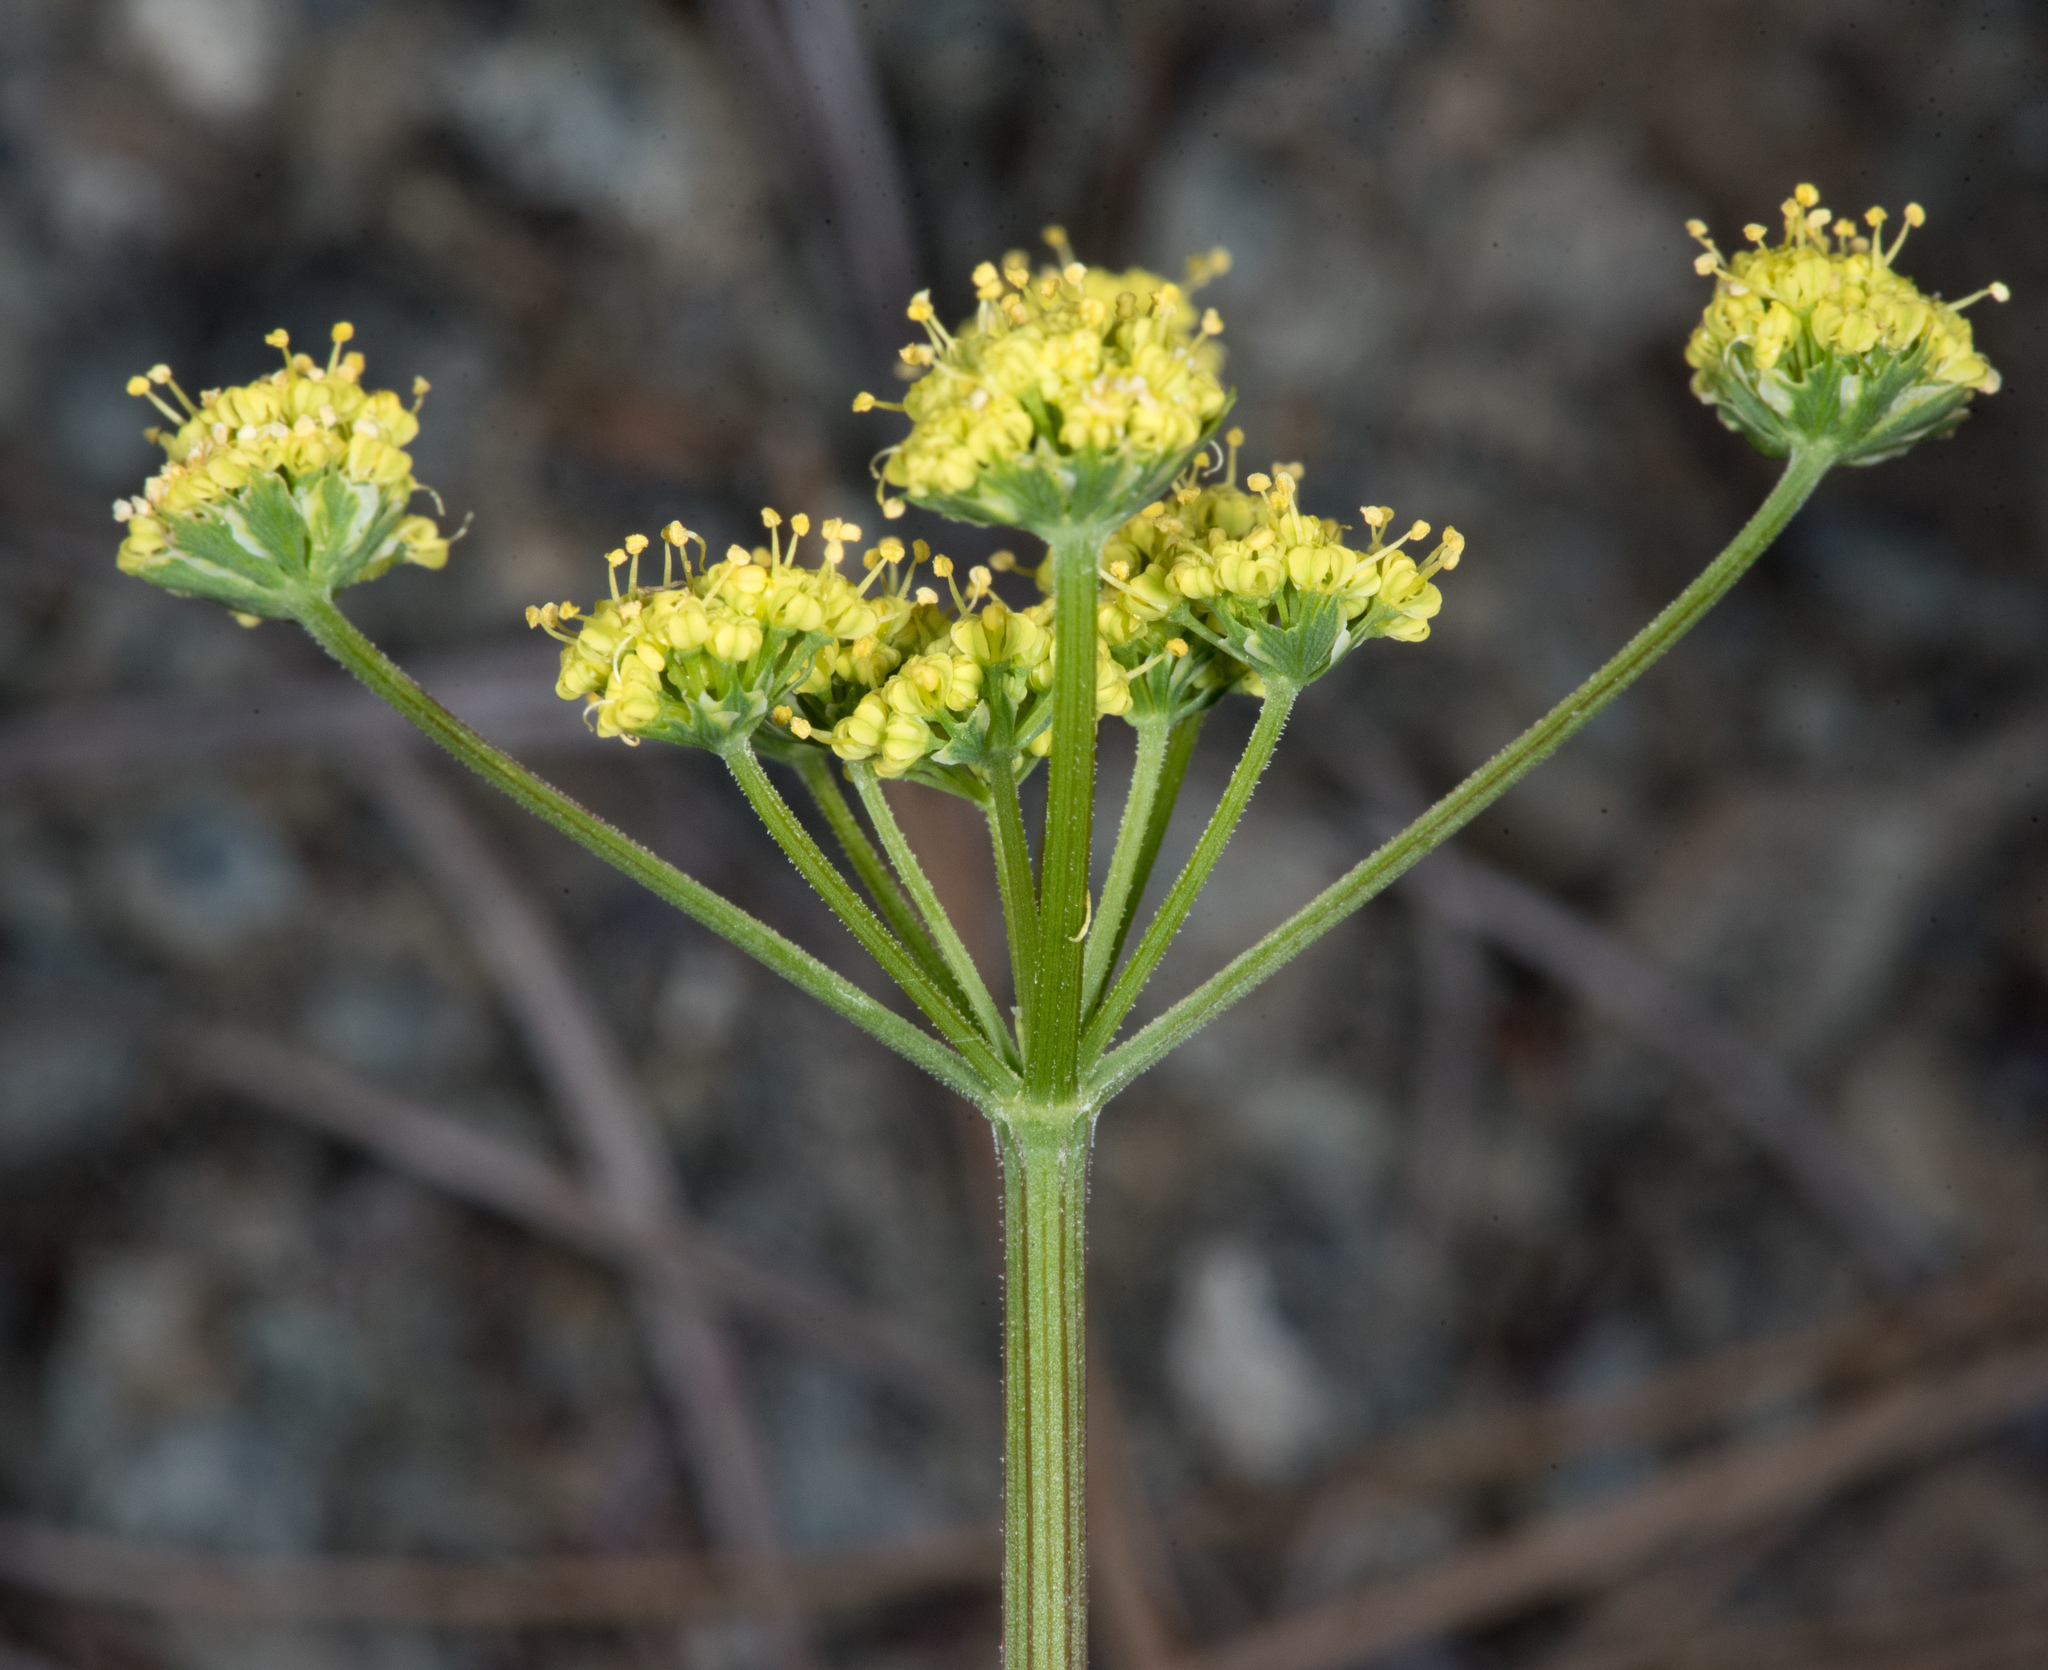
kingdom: Plantae
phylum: Tracheophyta
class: Magnoliopsida
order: Apiales
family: Apiaceae
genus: Lomatium
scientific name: Lomatium caruifolium
